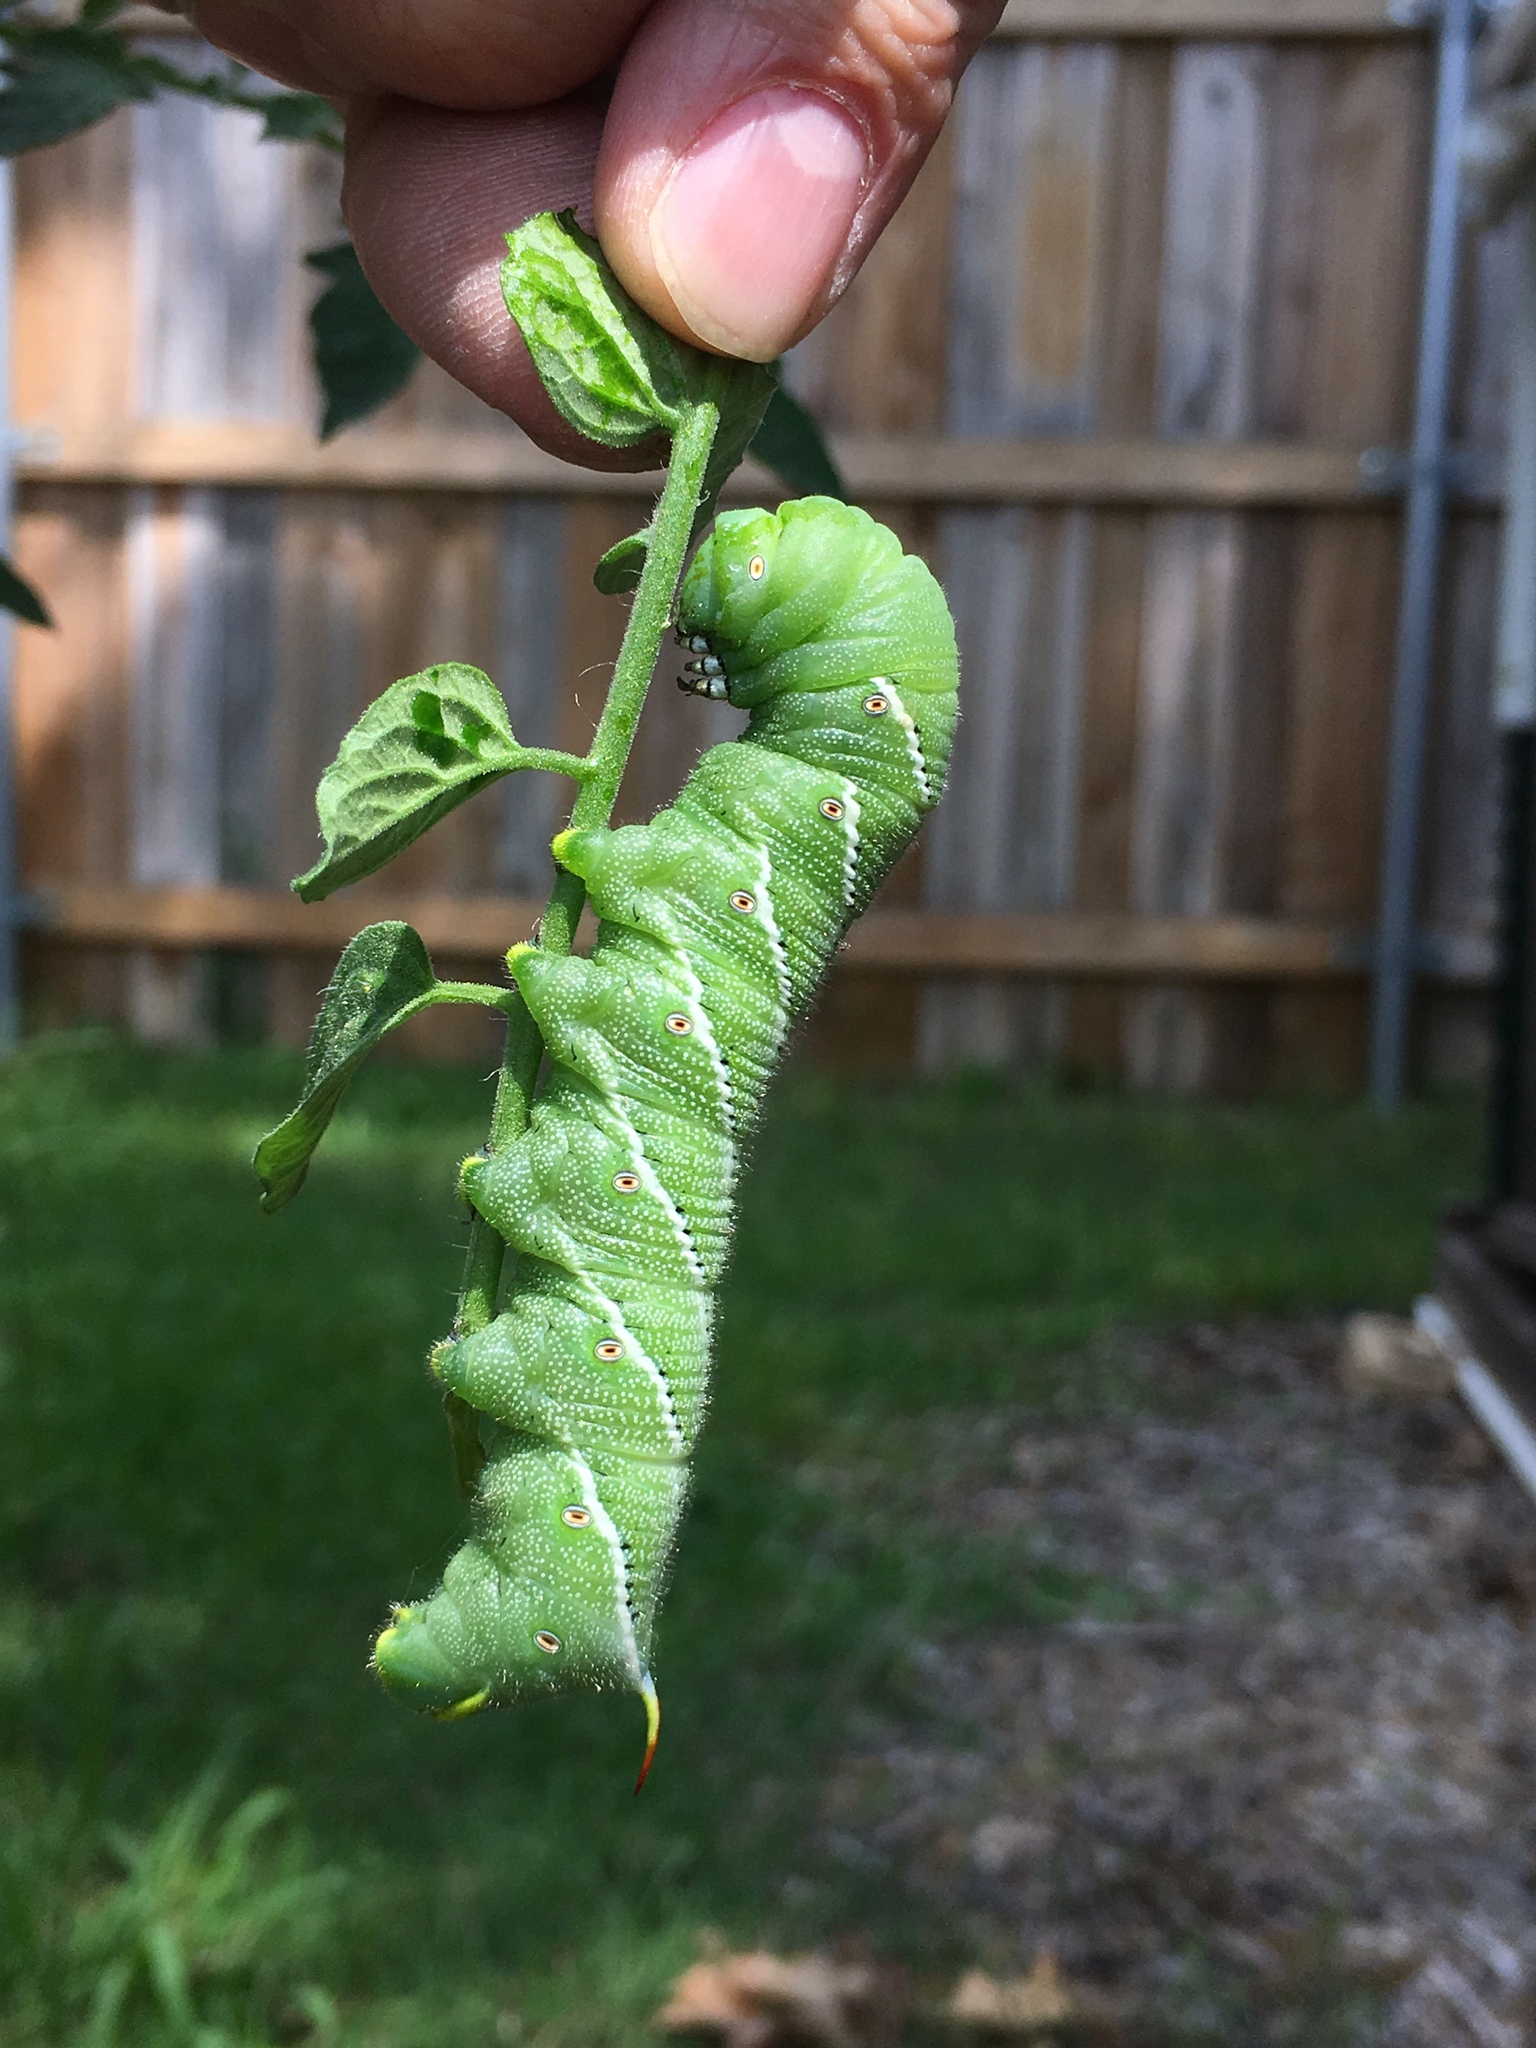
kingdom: Animalia
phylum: Arthropoda
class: Insecta
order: Lepidoptera
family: Sphingidae
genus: Manduca
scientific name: Manduca sexta
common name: Carolina sphinx
